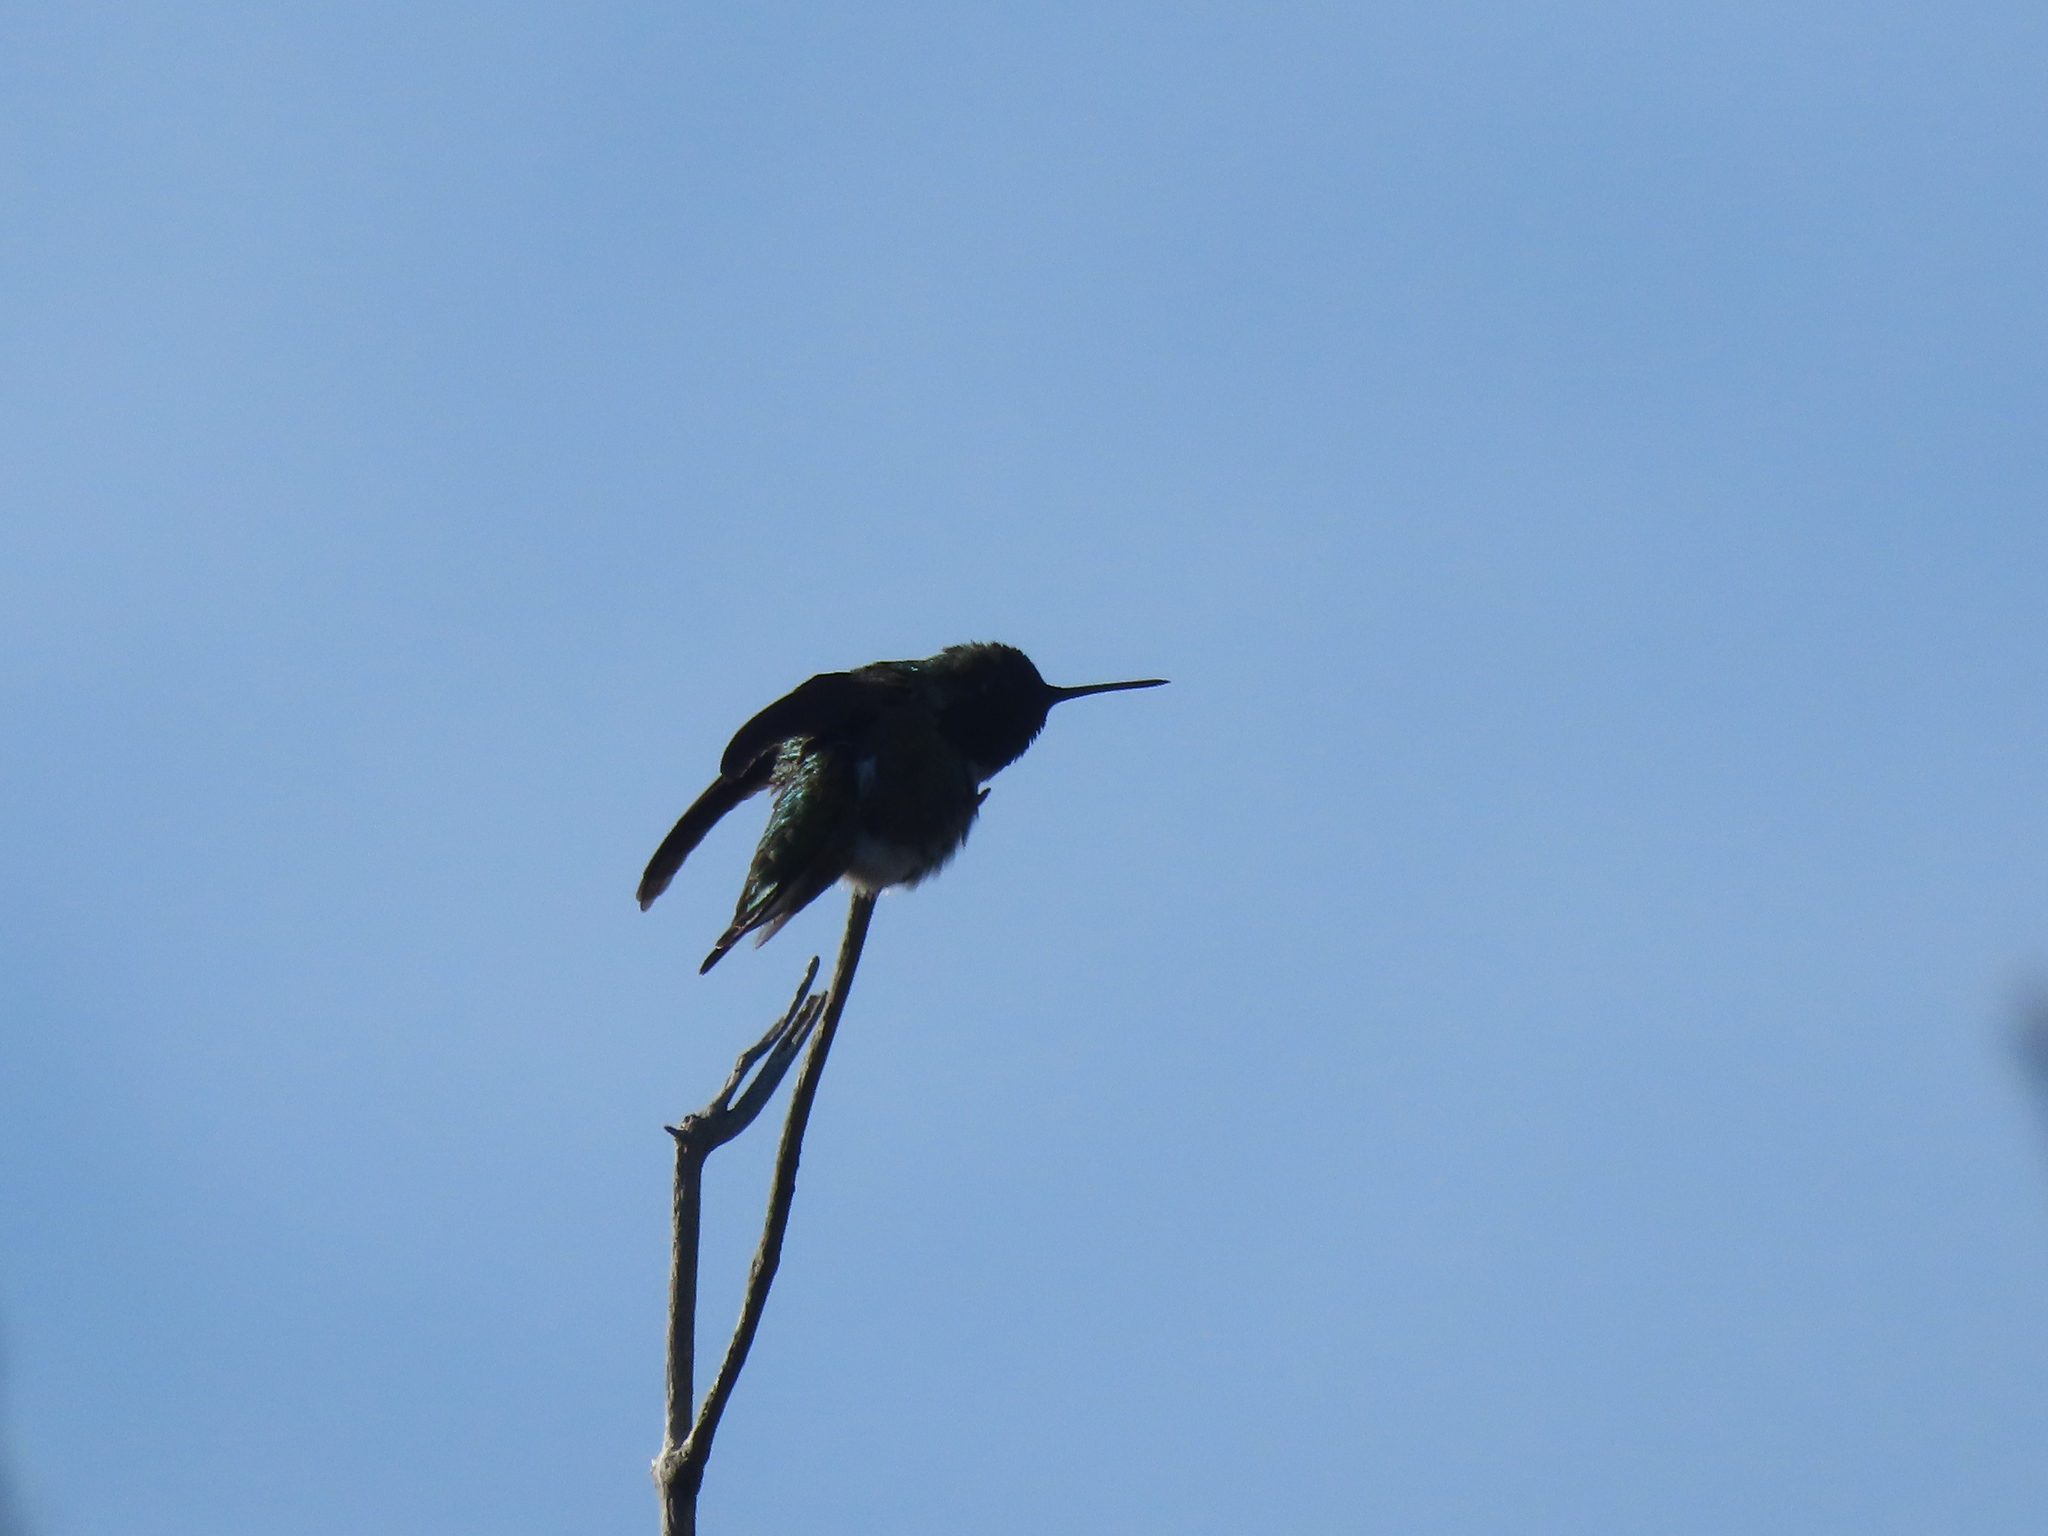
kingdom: Animalia
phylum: Chordata
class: Aves
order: Apodiformes
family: Trochilidae
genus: Calypte
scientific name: Calypte anna
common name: Anna's hummingbird
